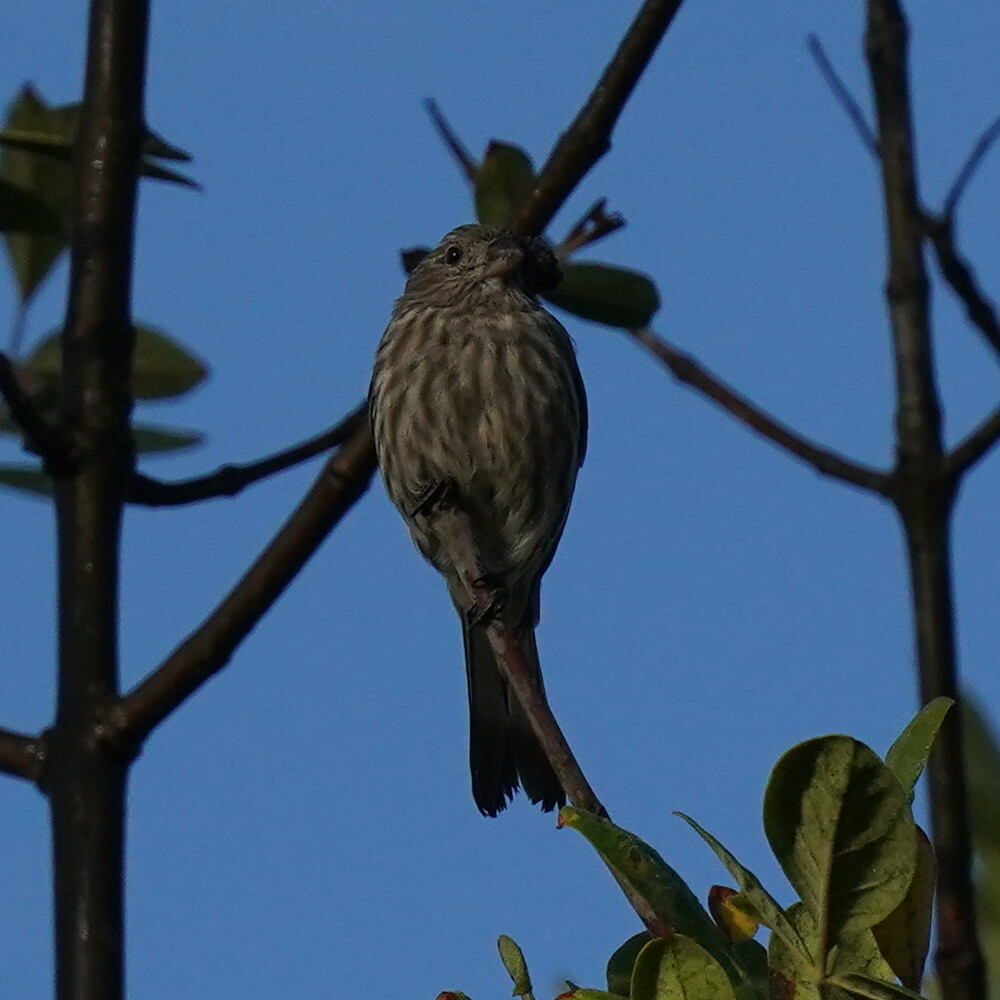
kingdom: Animalia
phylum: Chordata
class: Aves
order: Passeriformes
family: Fringillidae
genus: Haemorhous
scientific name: Haemorhous mexicanus
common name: House finch
